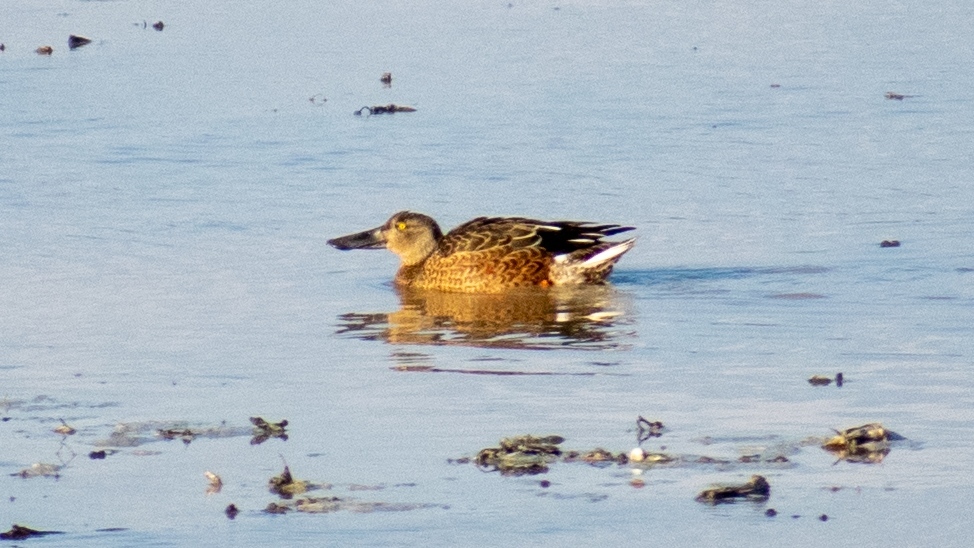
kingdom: Animalia
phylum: Chordata
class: Aves
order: Anseriformes
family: Anatidae
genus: Spatula
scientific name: Spatula clypeata
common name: Northern shoveler
